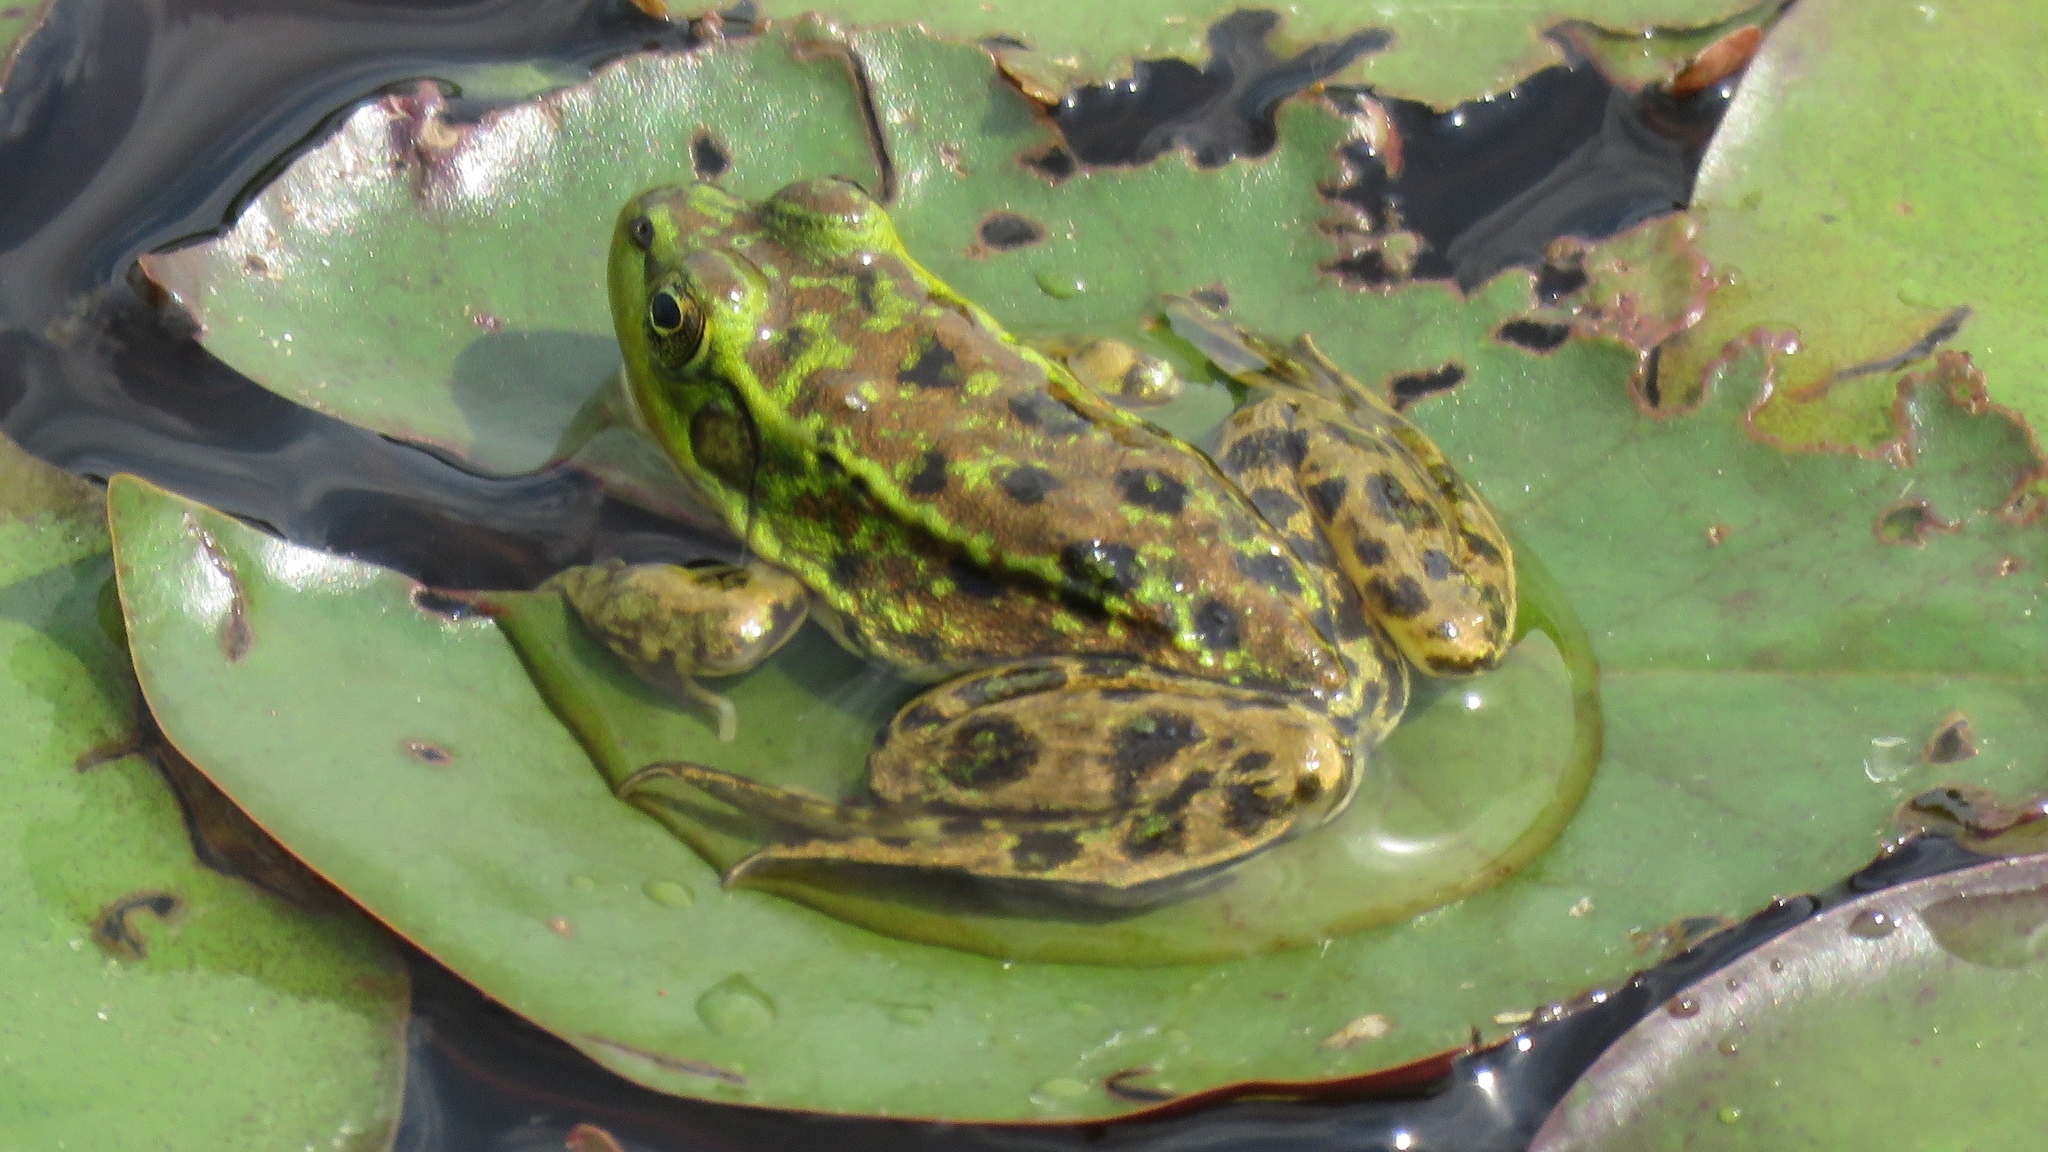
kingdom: Animalia
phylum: Chordata
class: Amphibia
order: Anura
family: Ranidae
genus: Lithobates
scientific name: Lithobates septentrionalis
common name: Mink frog
